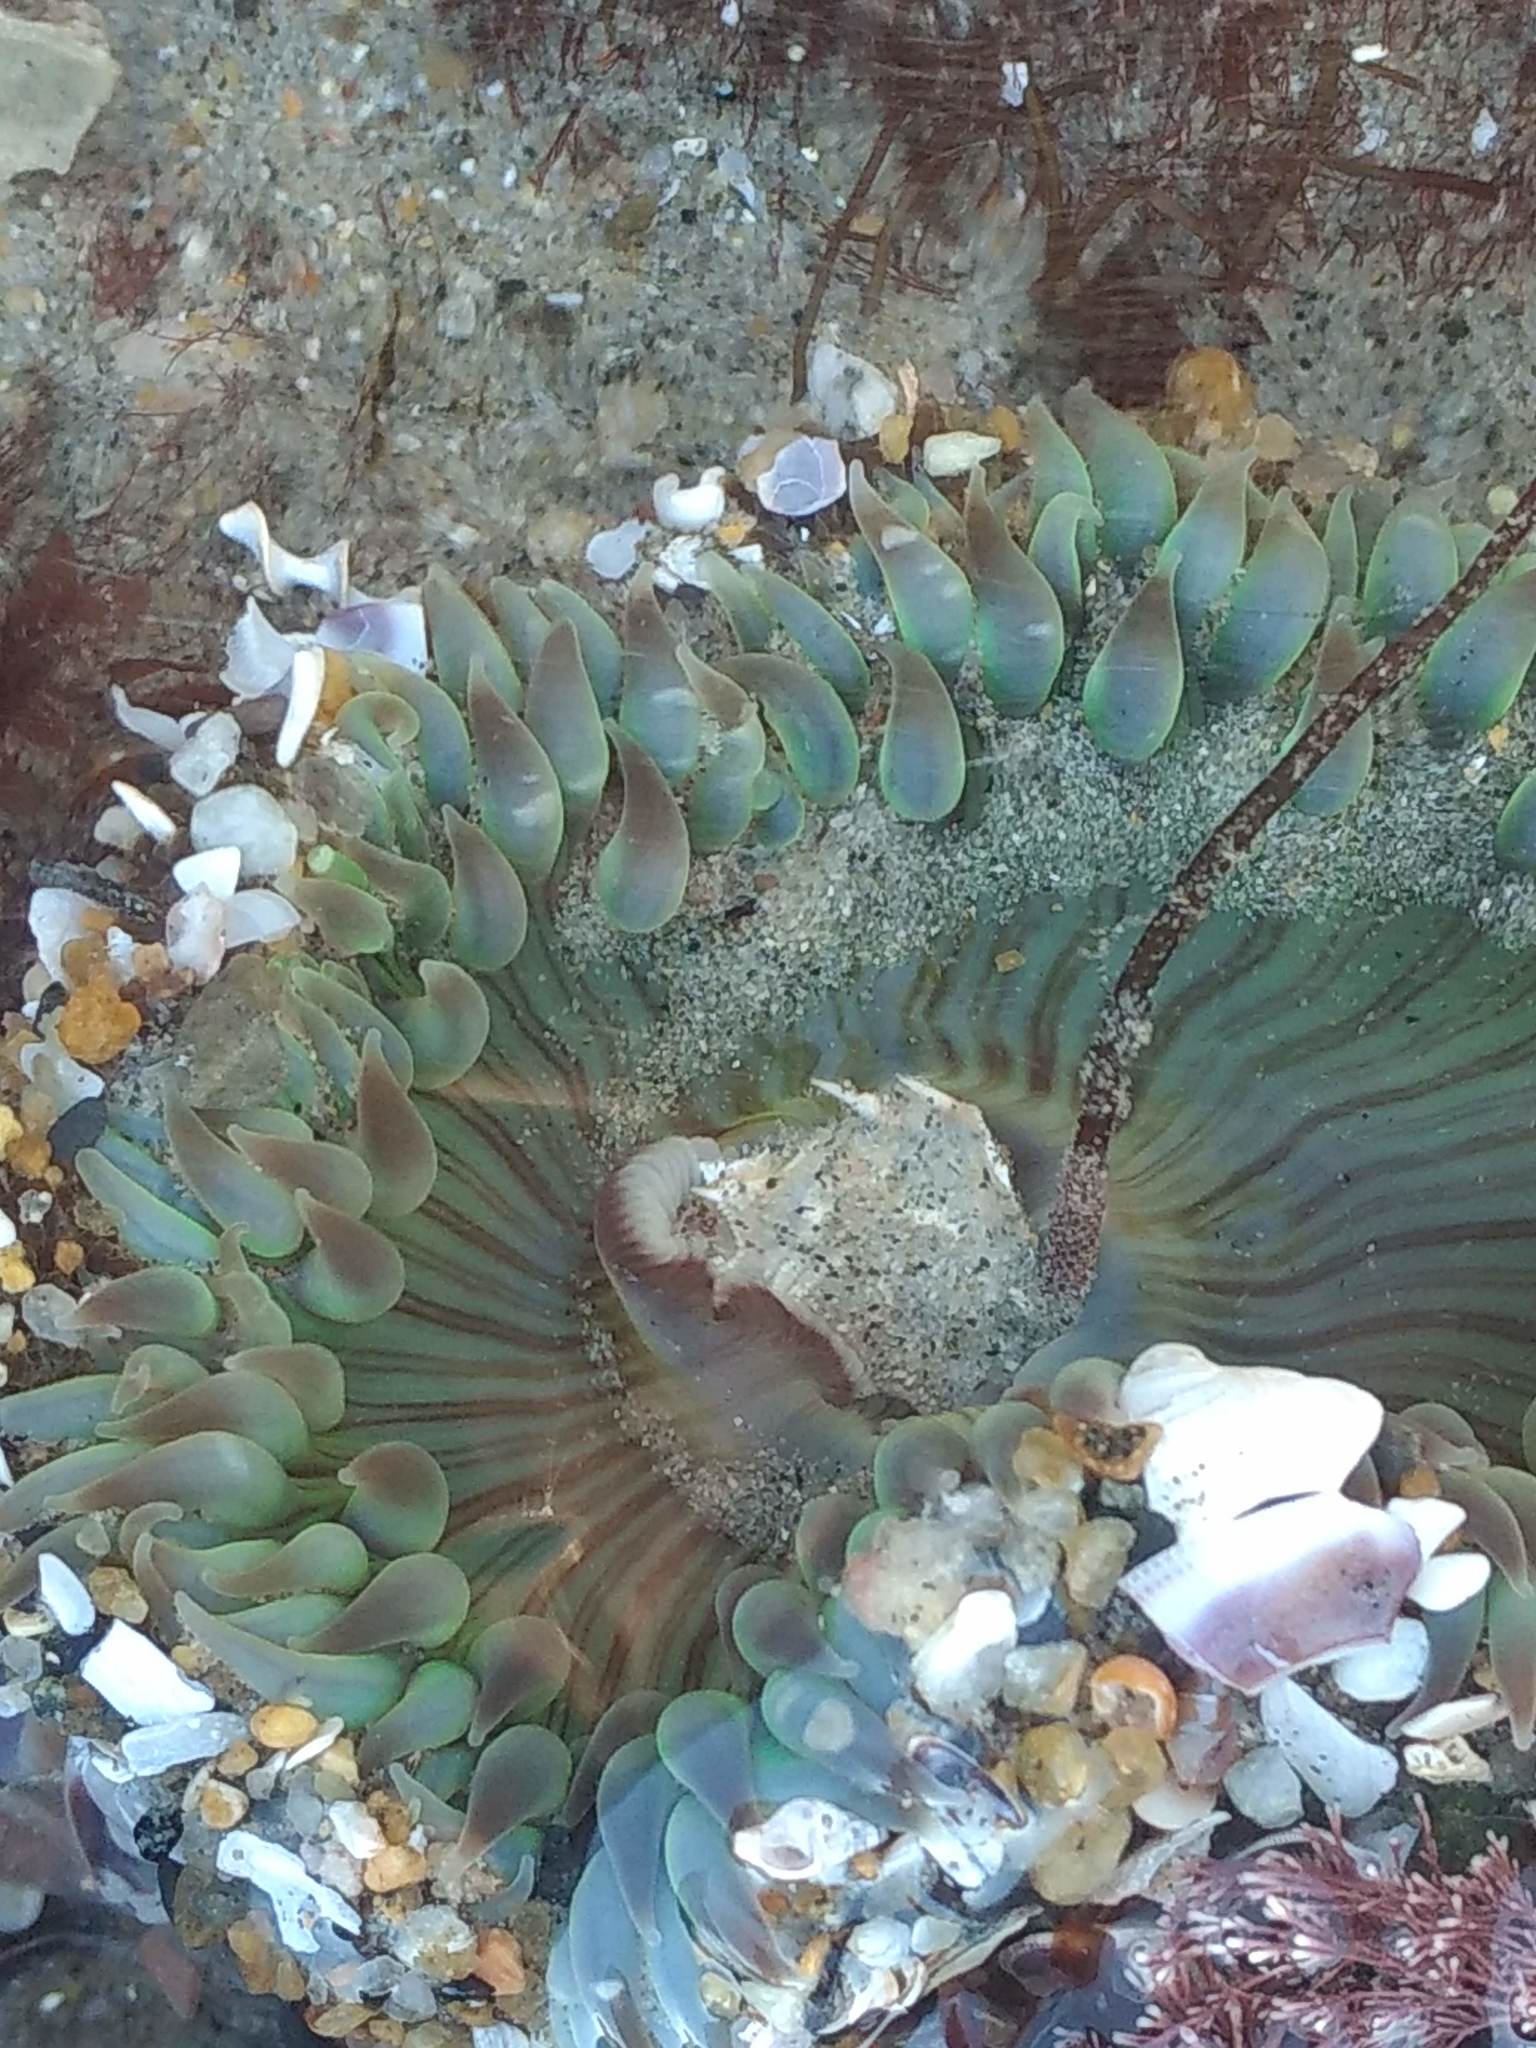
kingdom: Animalia
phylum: Cnidaria
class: Anthozoa
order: Actiniaria
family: Actiniidae
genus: Anthopleura
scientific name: Anthopleura sola
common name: Sun anemone
